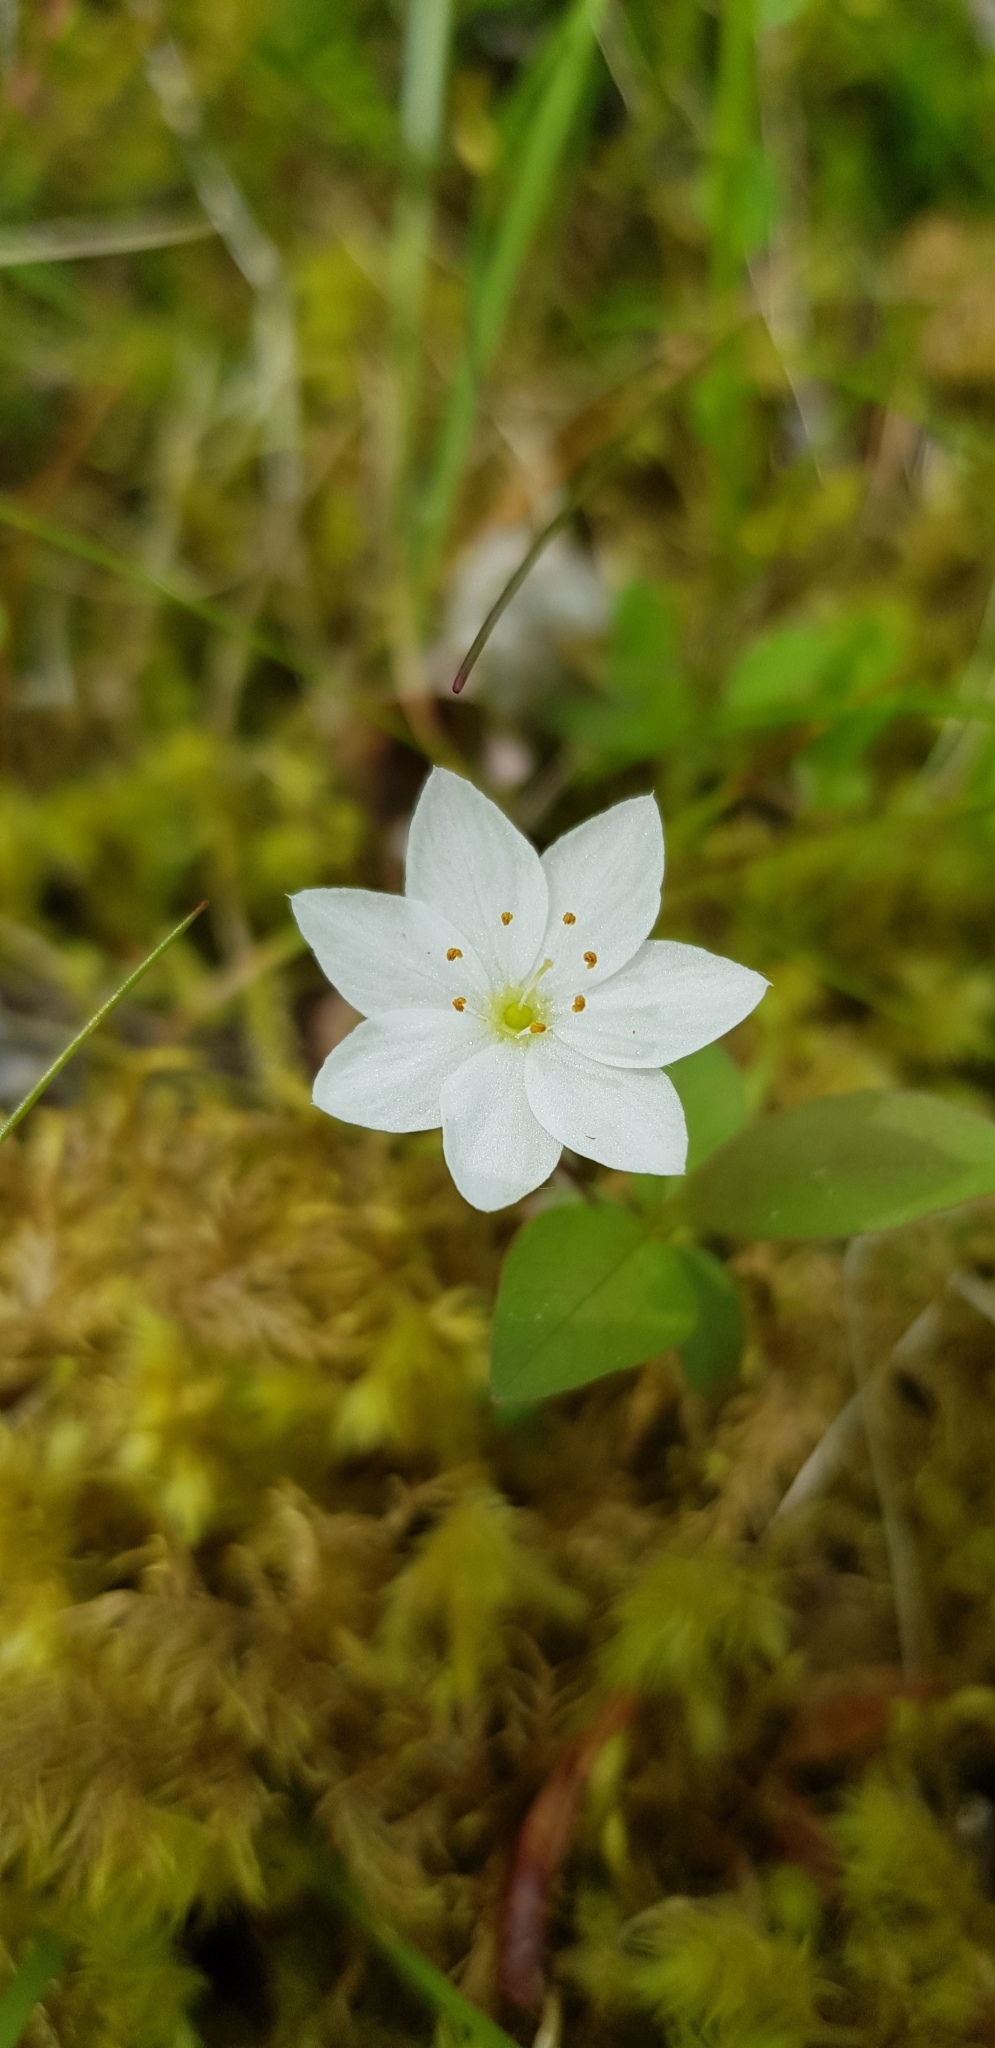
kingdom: Plantae
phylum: Tracheophyta
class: Magnoliopsida
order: Ericales
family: Primulaceae
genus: Lysimachia
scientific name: Lysimachia europaea
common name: Arctic starflower
